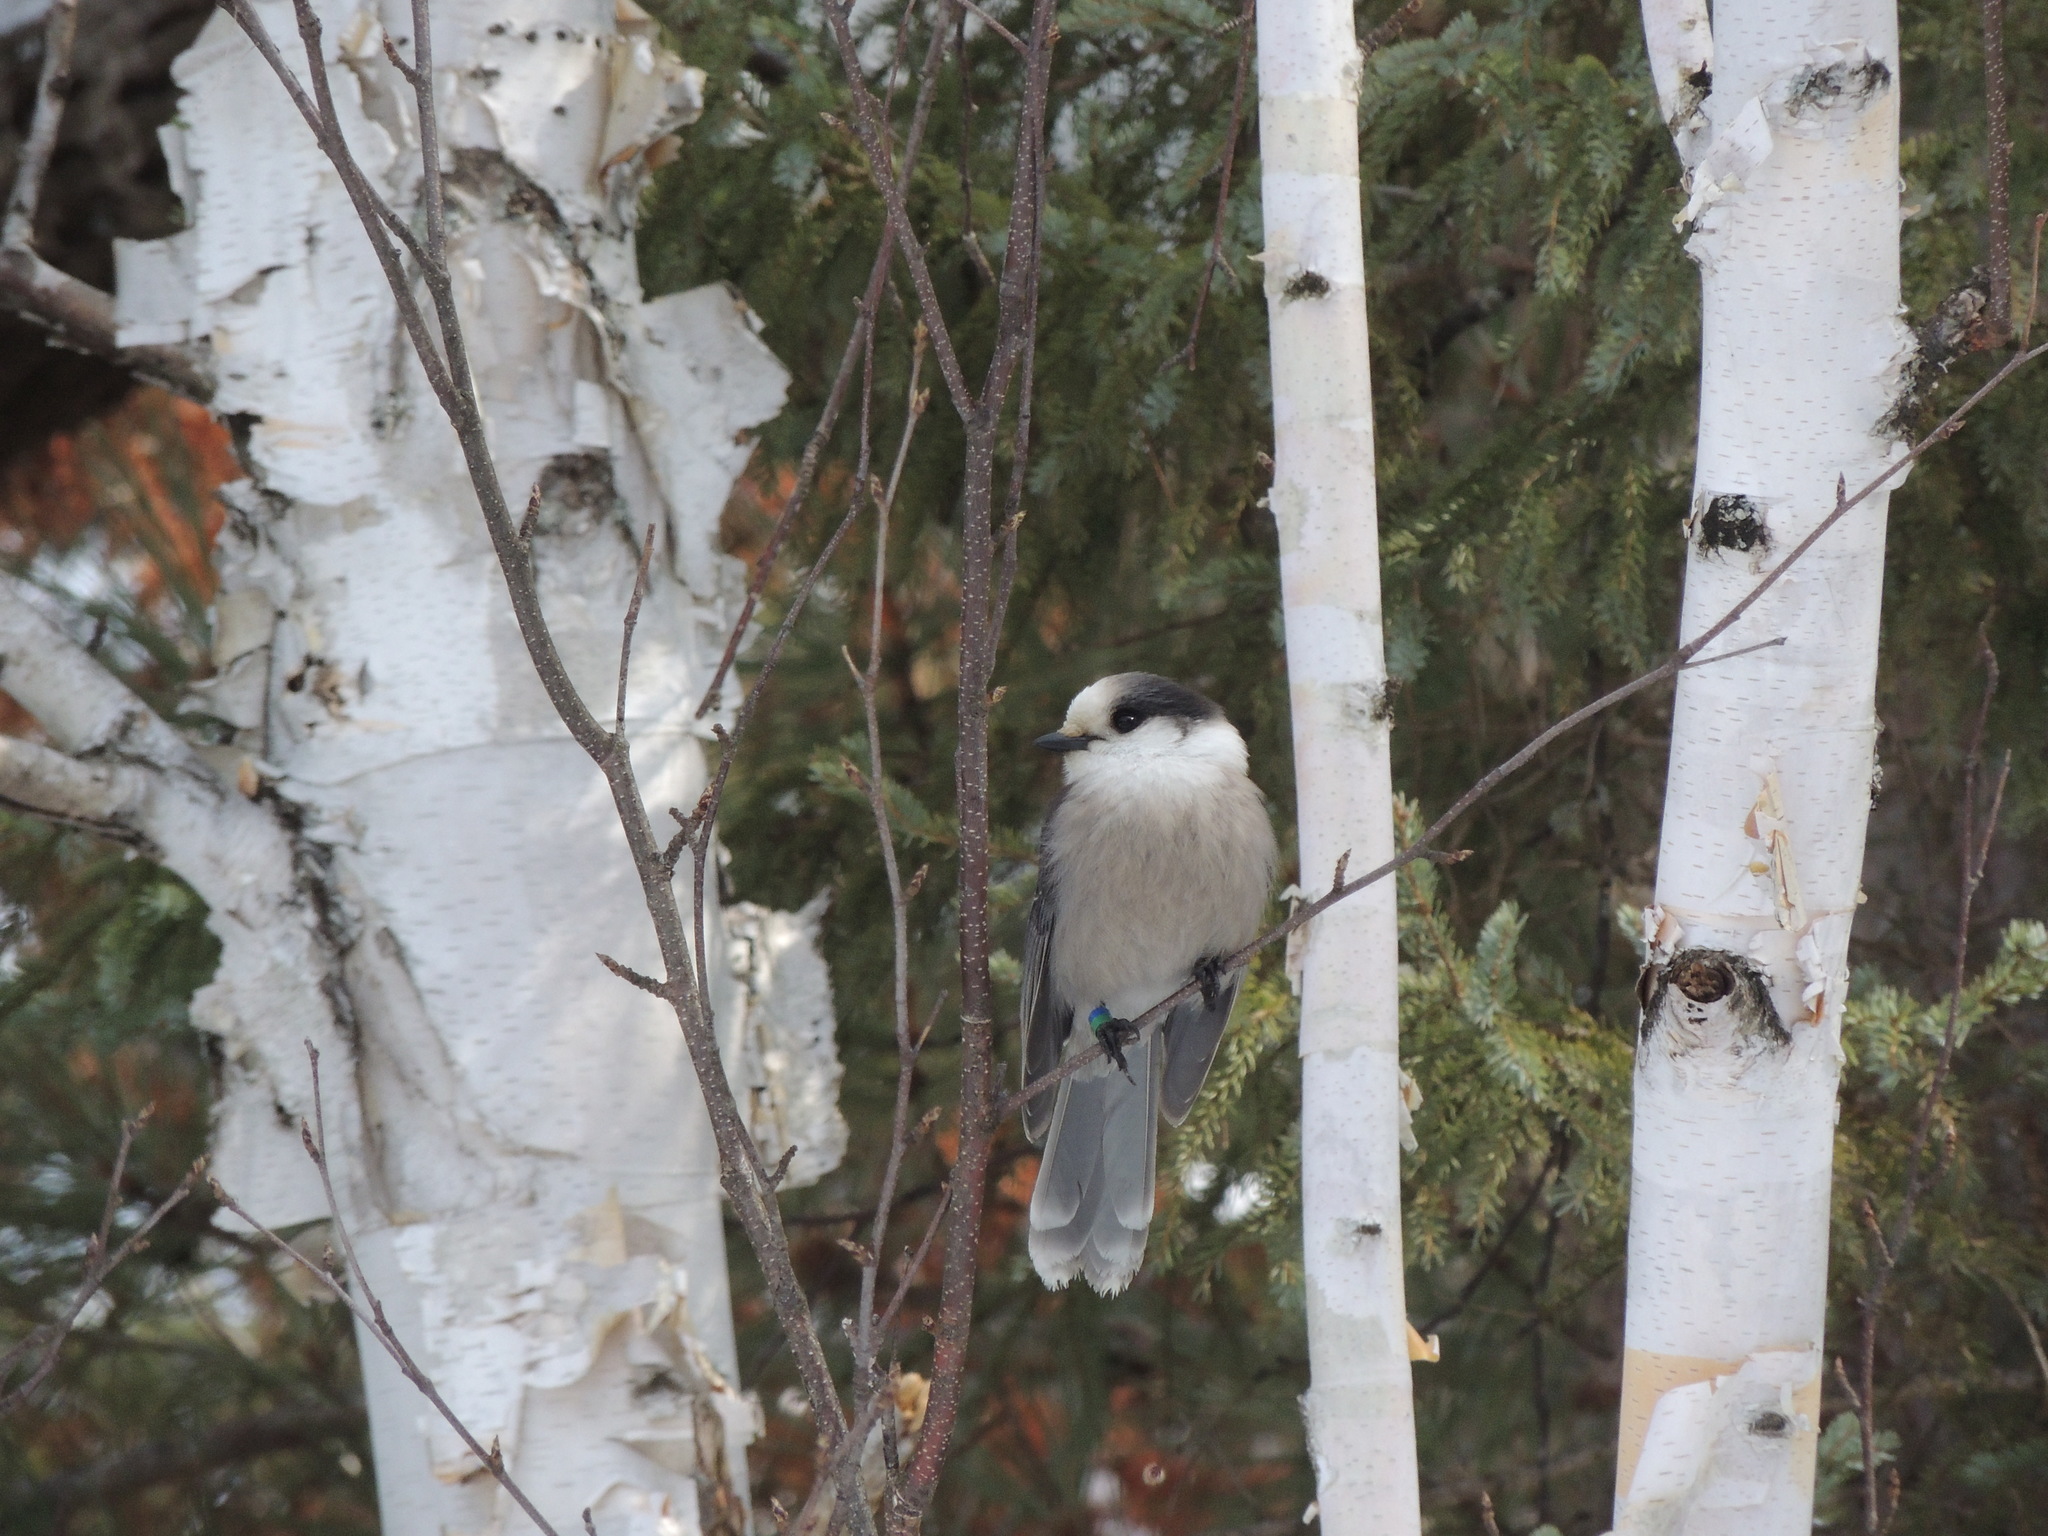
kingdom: Animalia
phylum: Chordata
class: Aves
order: Passeriformes
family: Corvidae
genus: Perisoreus
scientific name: Perisoreus canadensis
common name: Gray jay
